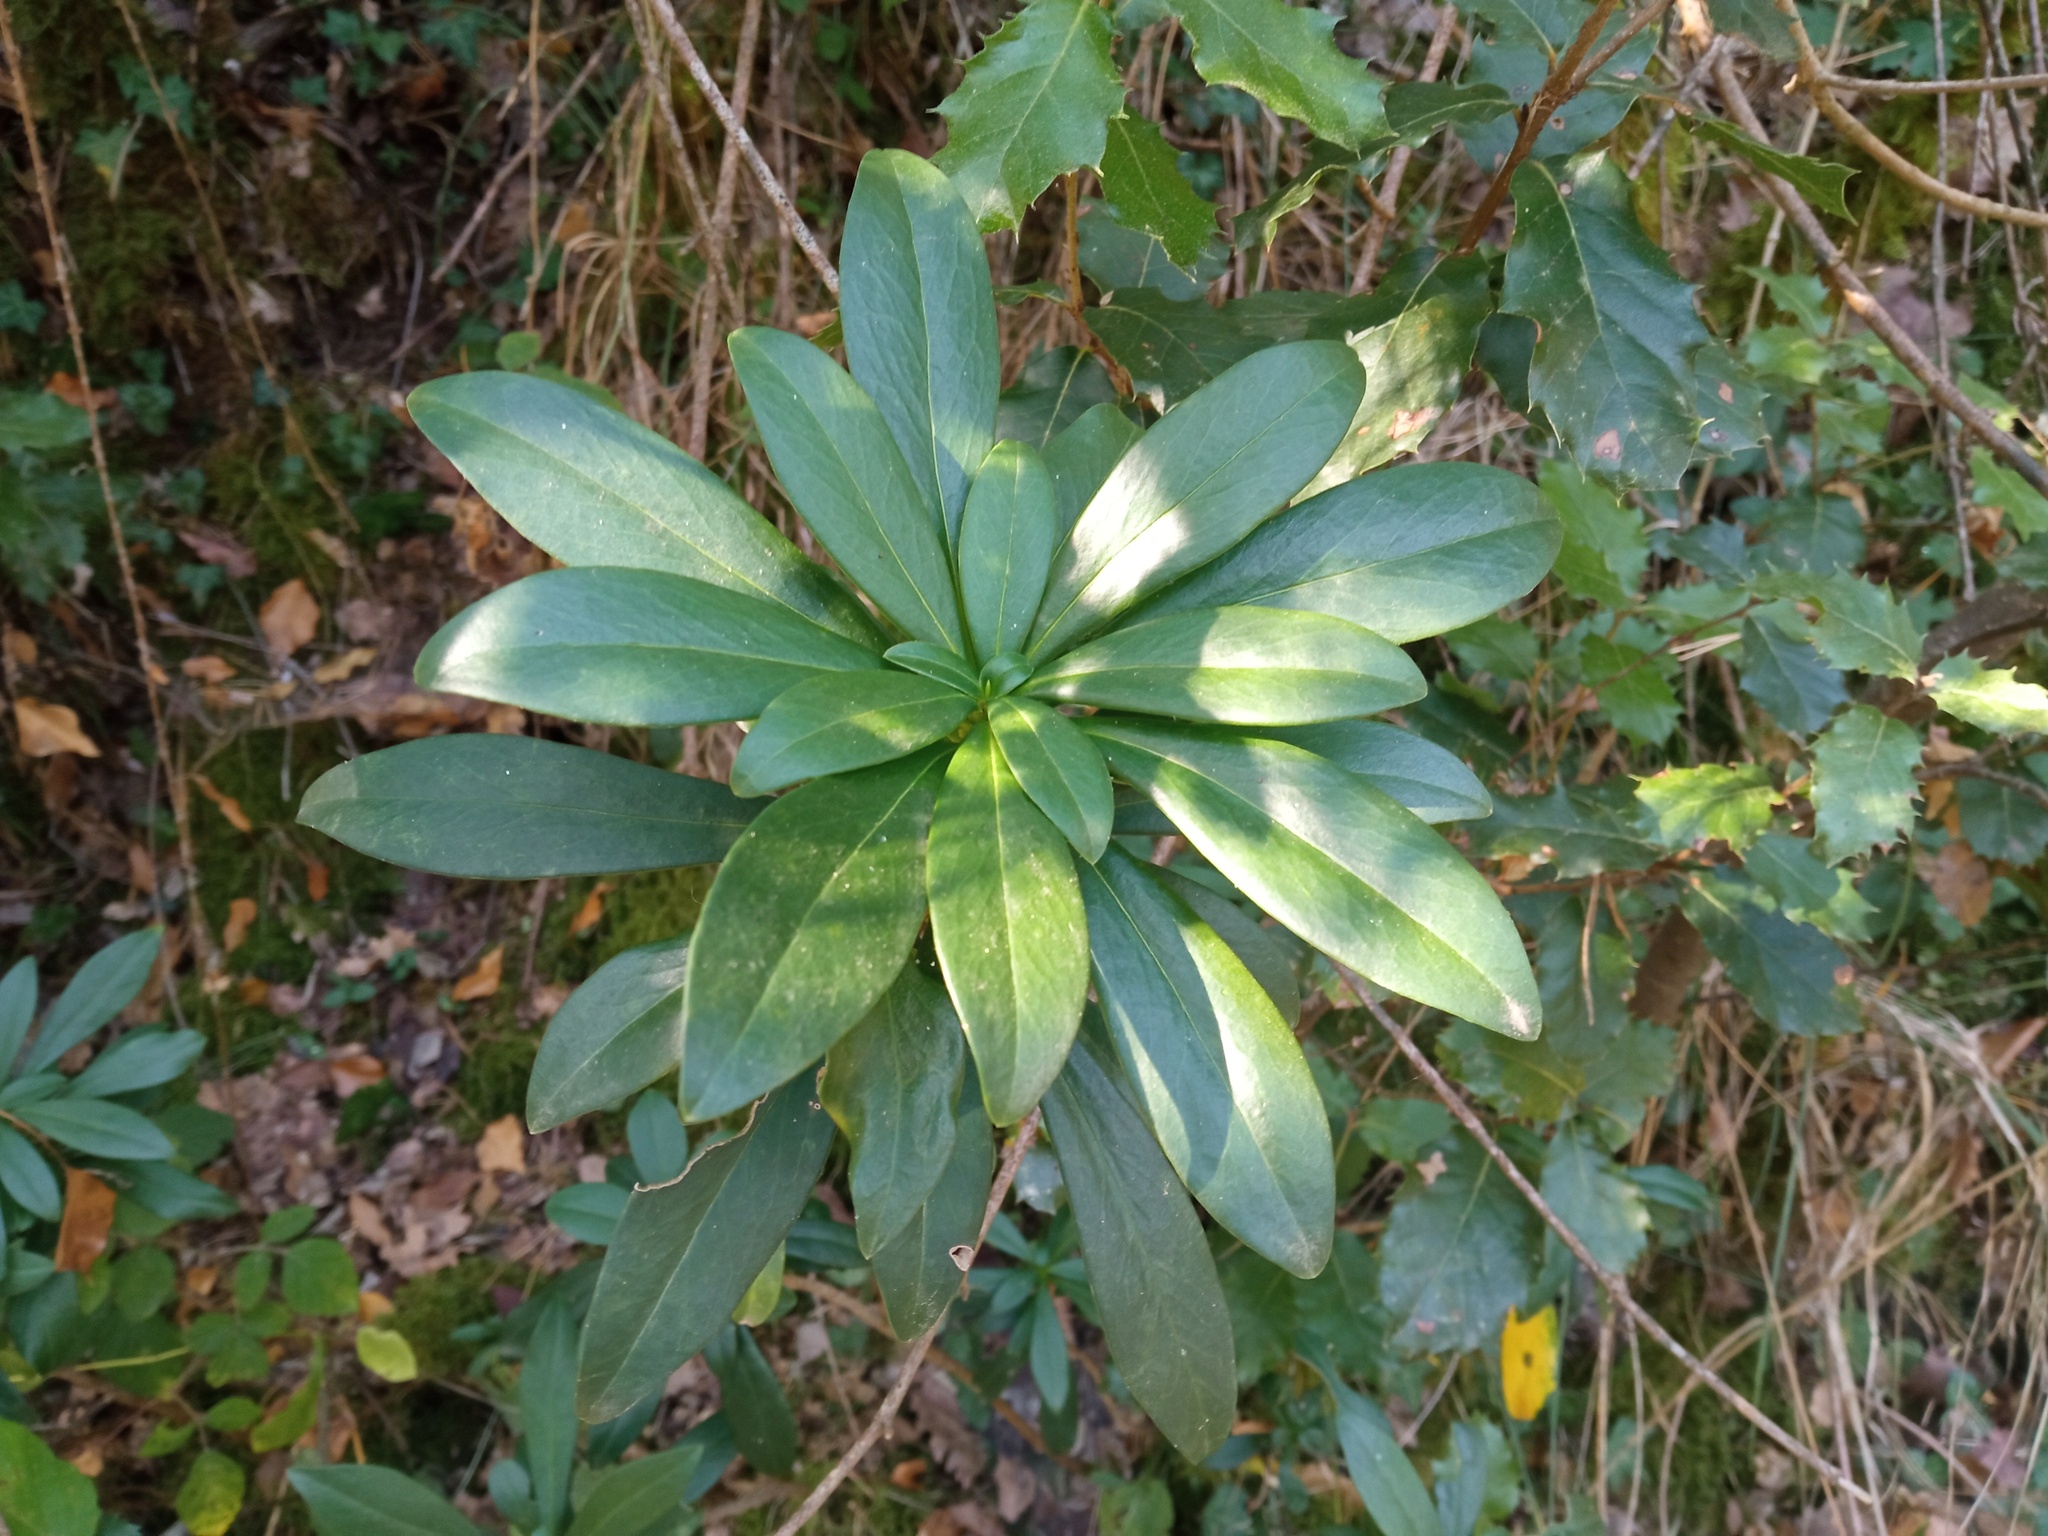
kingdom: Plantae
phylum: Tracheophyta
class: Magnoliopsida
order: Malvales
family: Thymelaeaceae
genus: Daphne
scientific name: Daphne laureola
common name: Spurge-laurel
